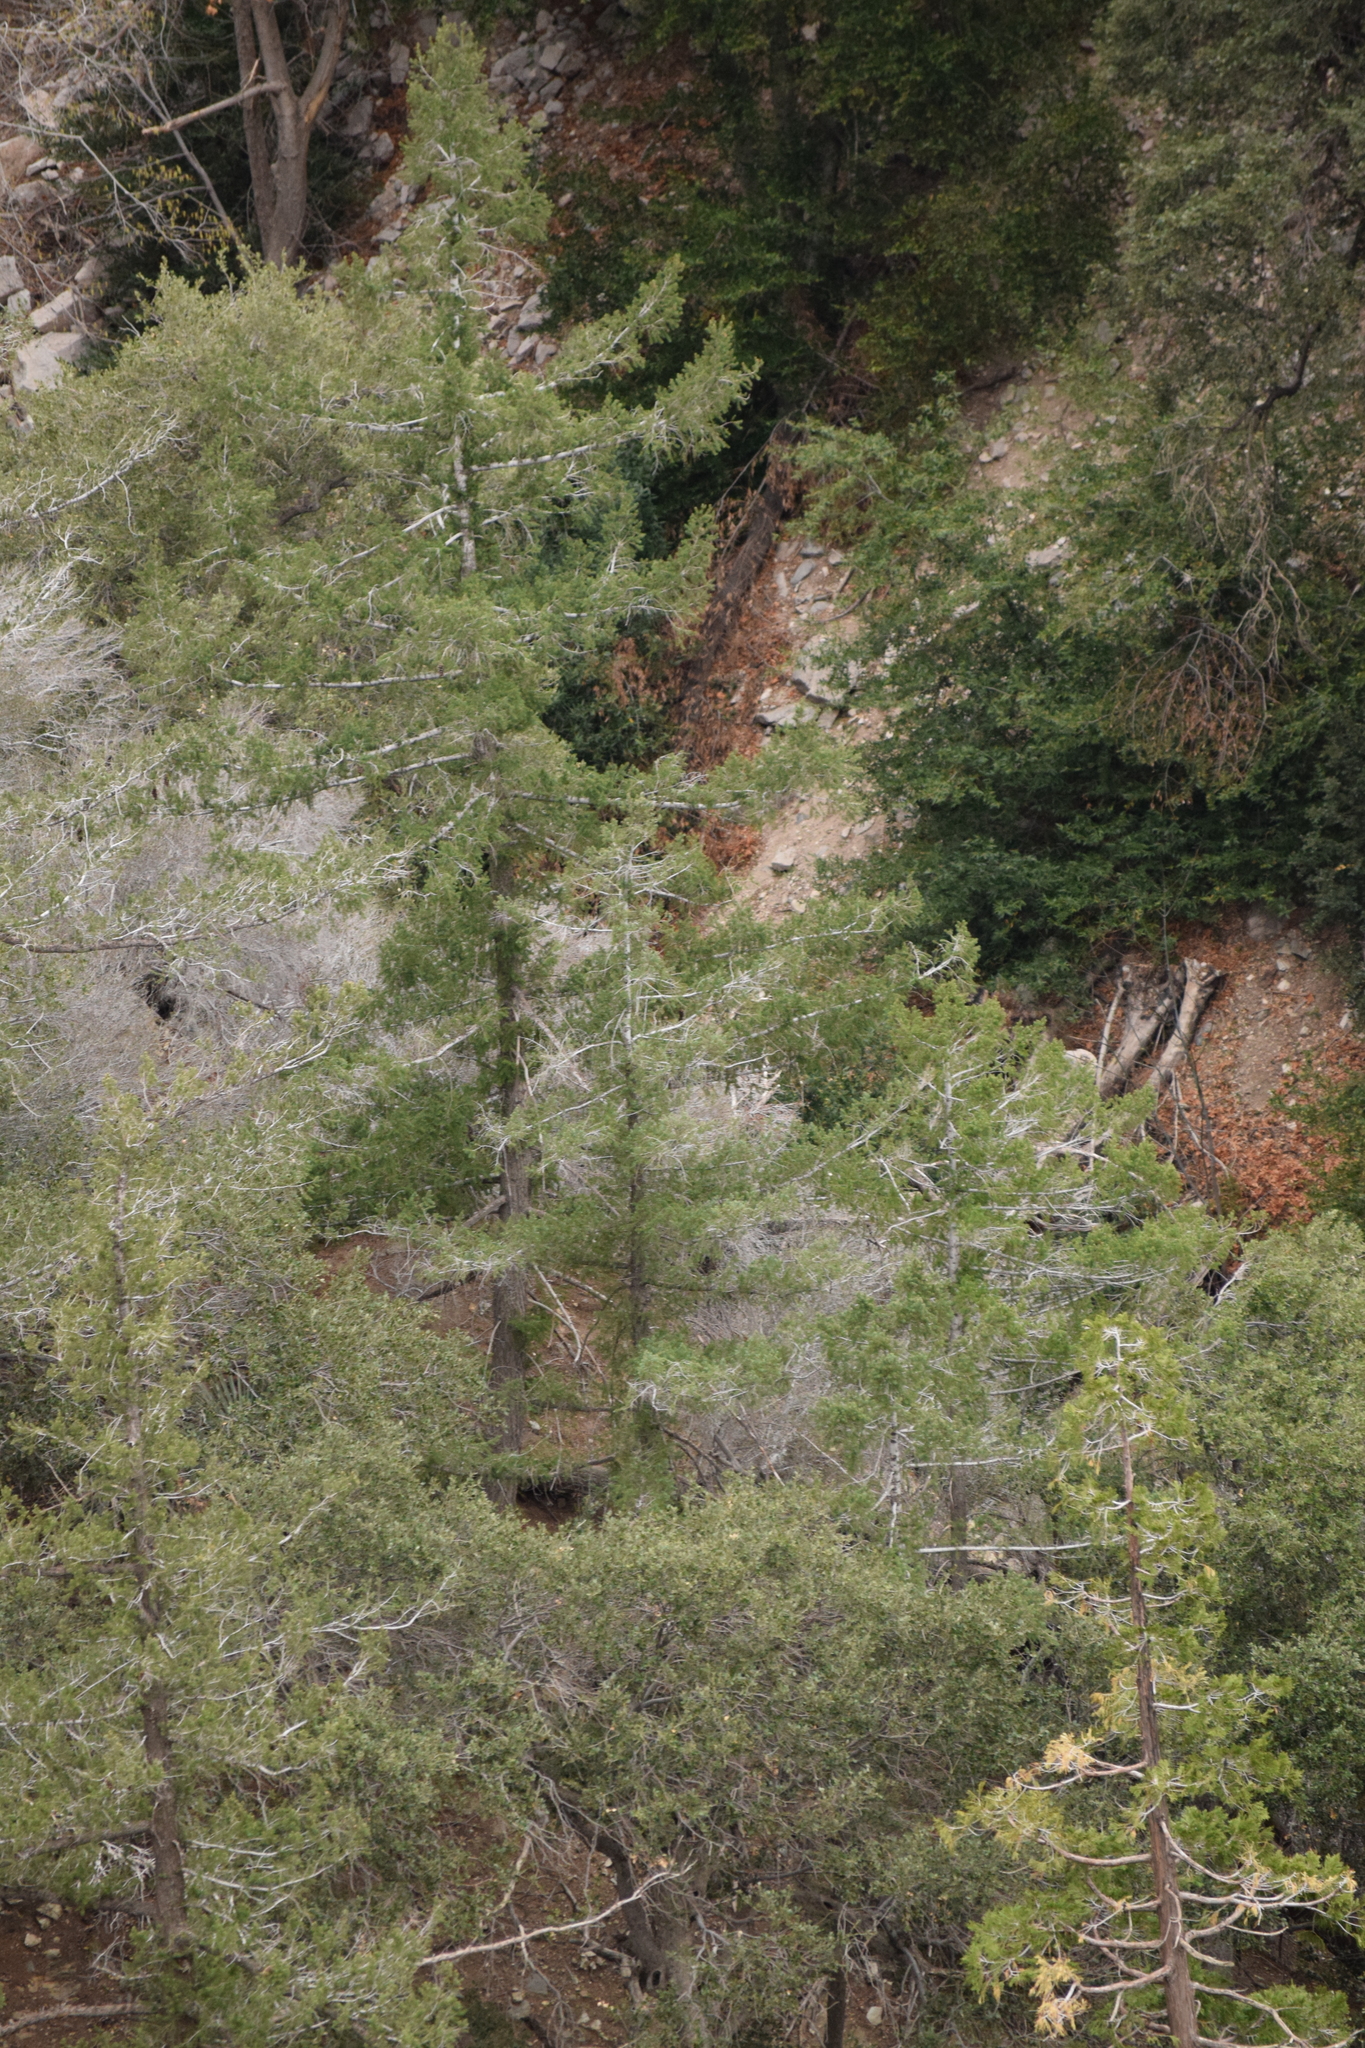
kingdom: Plantae
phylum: Tracheophyta
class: Pinopsida
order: Pinales
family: Pinaceae
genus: Pseudotsuga
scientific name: Pseudotsuga macrocarpa
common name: Big-cone douglas-fir
